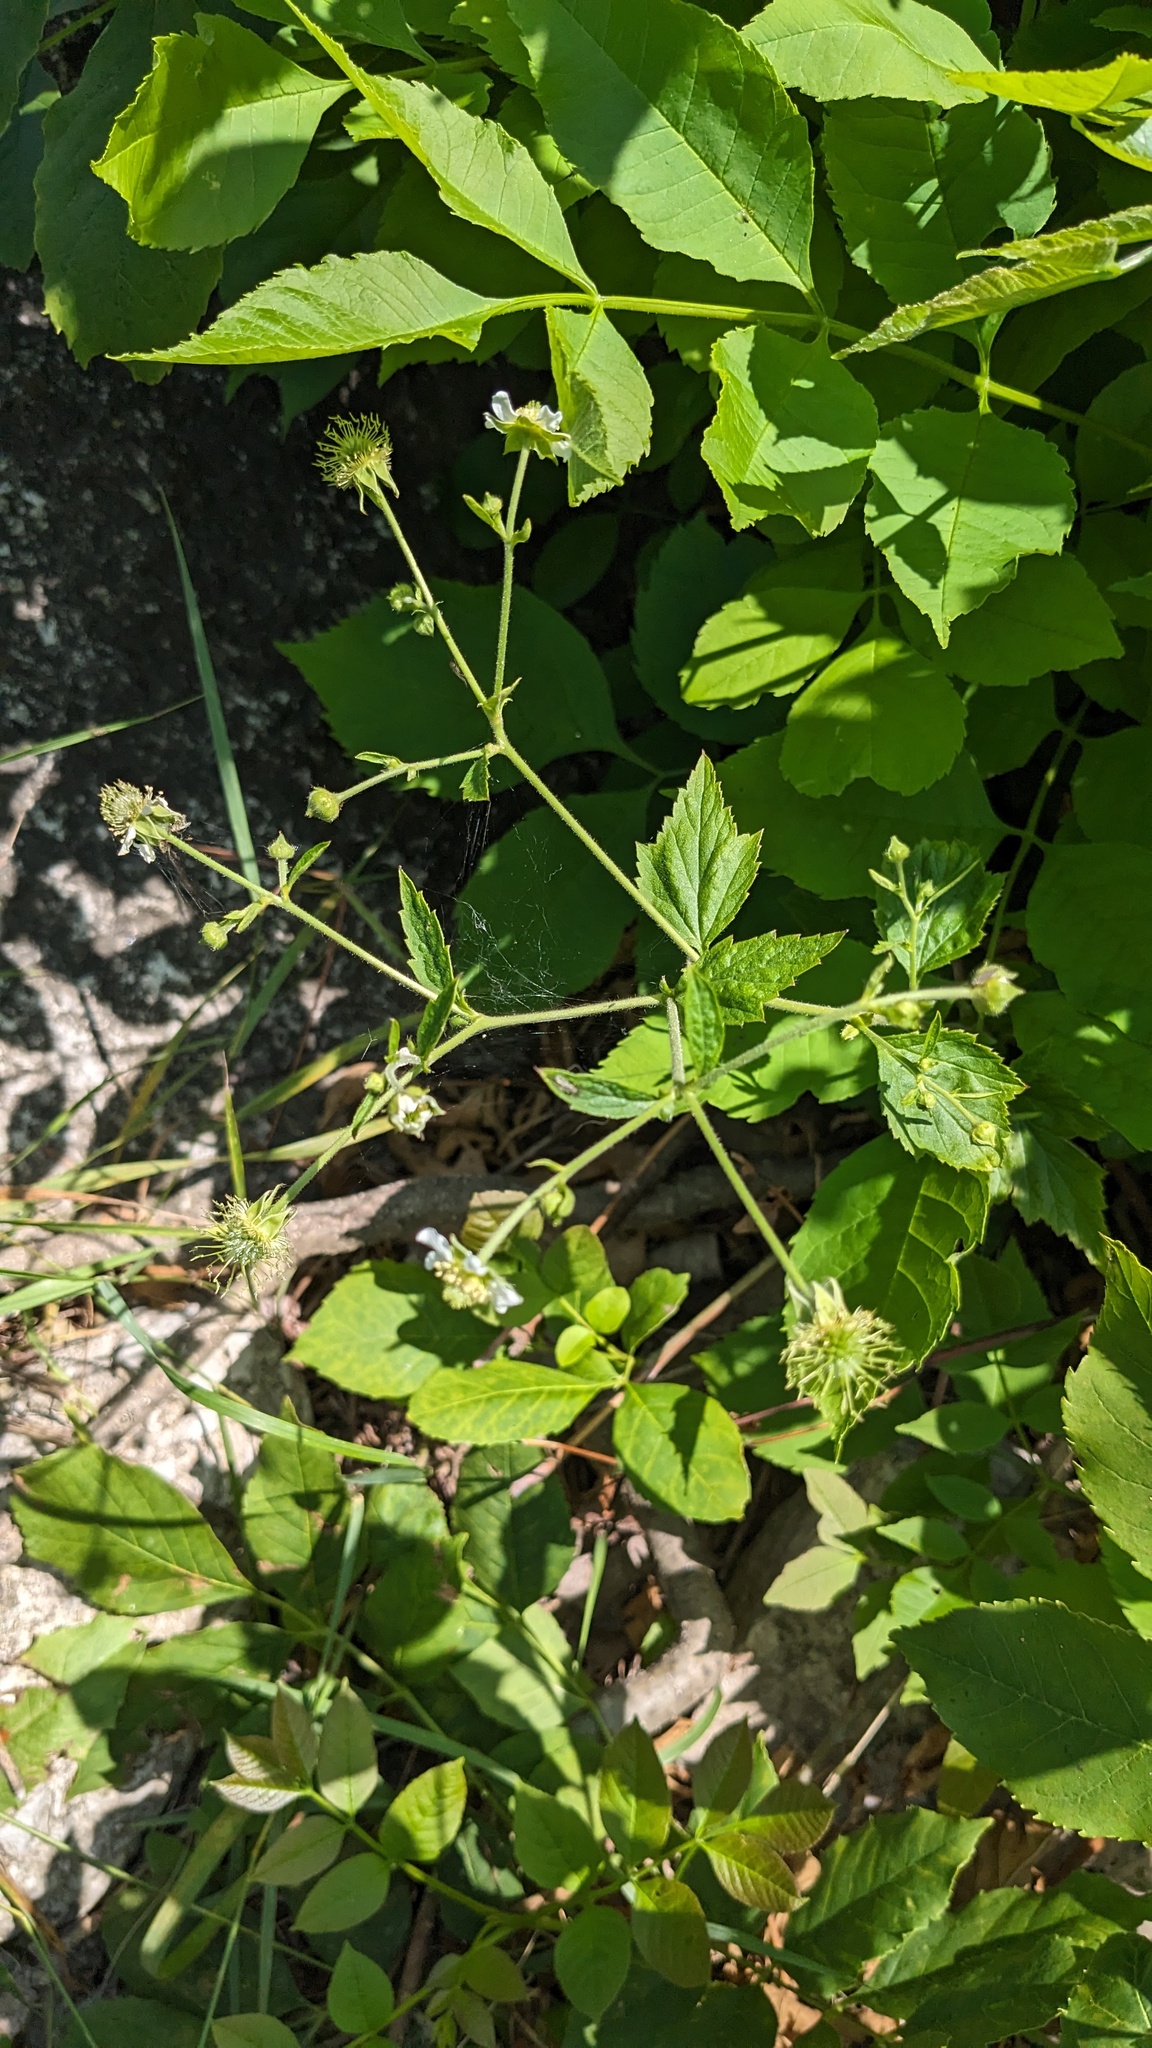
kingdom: Plantae
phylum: Tracheophyta
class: Magnoliopsida
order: Rosales
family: Rosaceae
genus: Geum
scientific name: Geum canadense
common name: White avens
